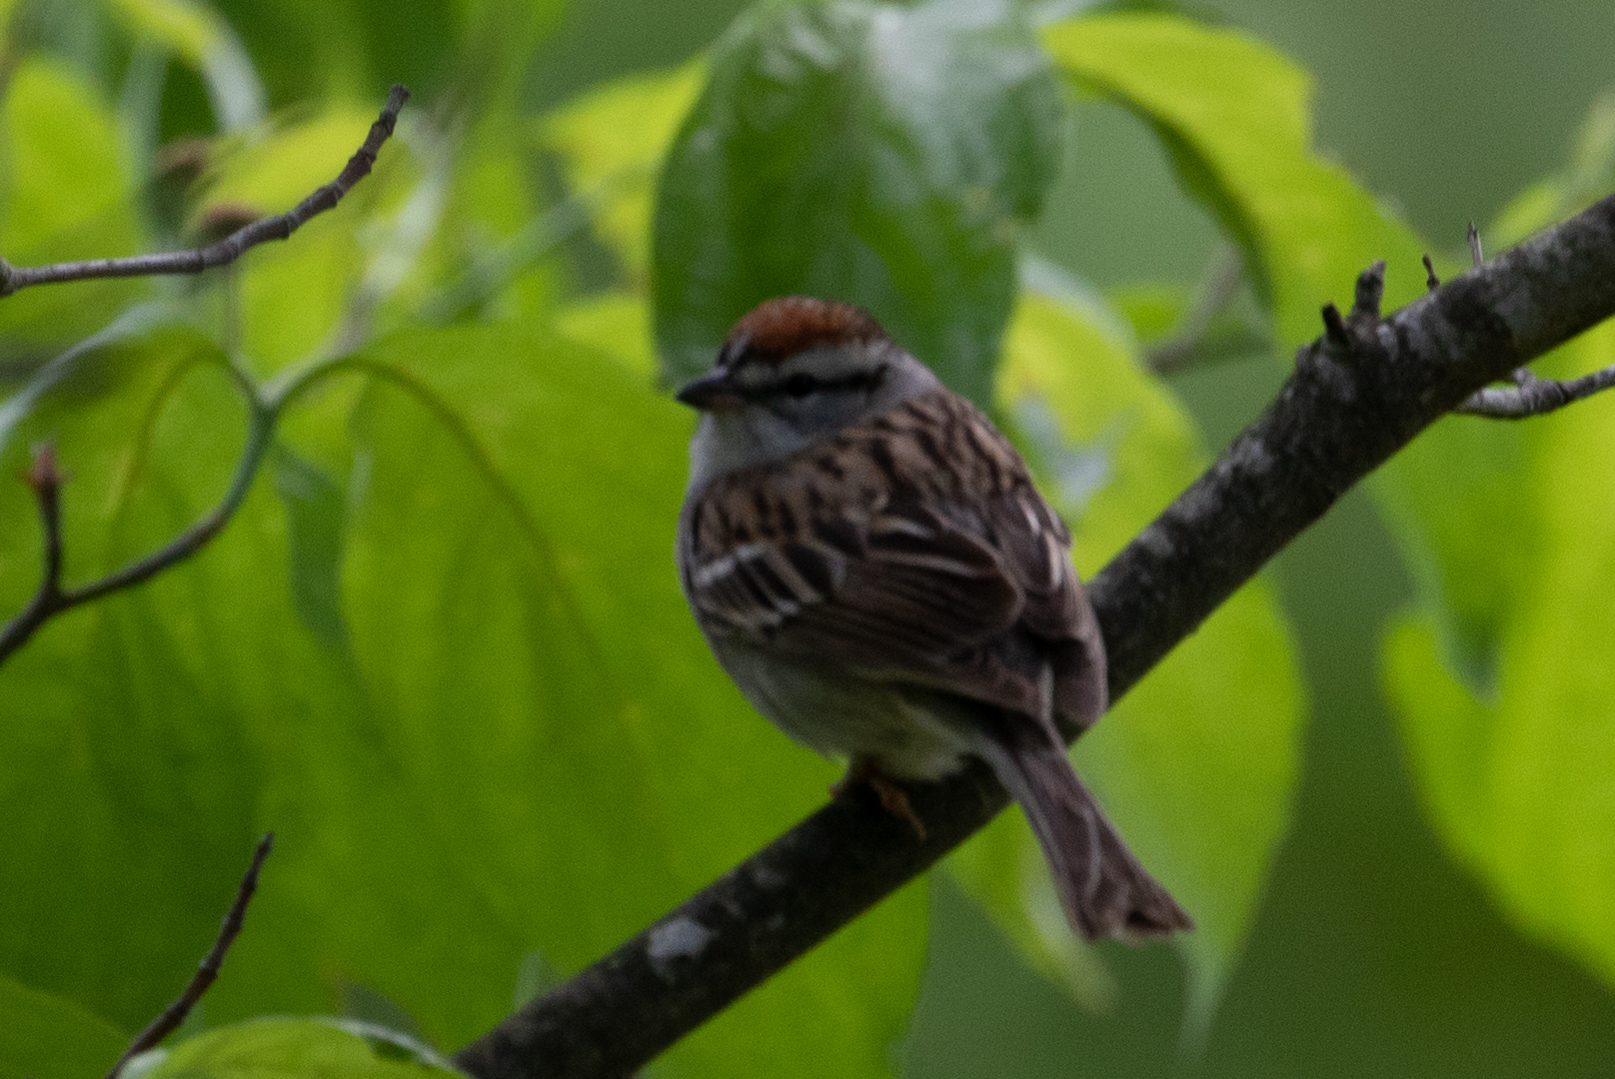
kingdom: Animalia
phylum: Chordata
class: Aves
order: Passeriformes
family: Passerellidae
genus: Spizella
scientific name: Spizella passerina
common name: Chipping sparrow
